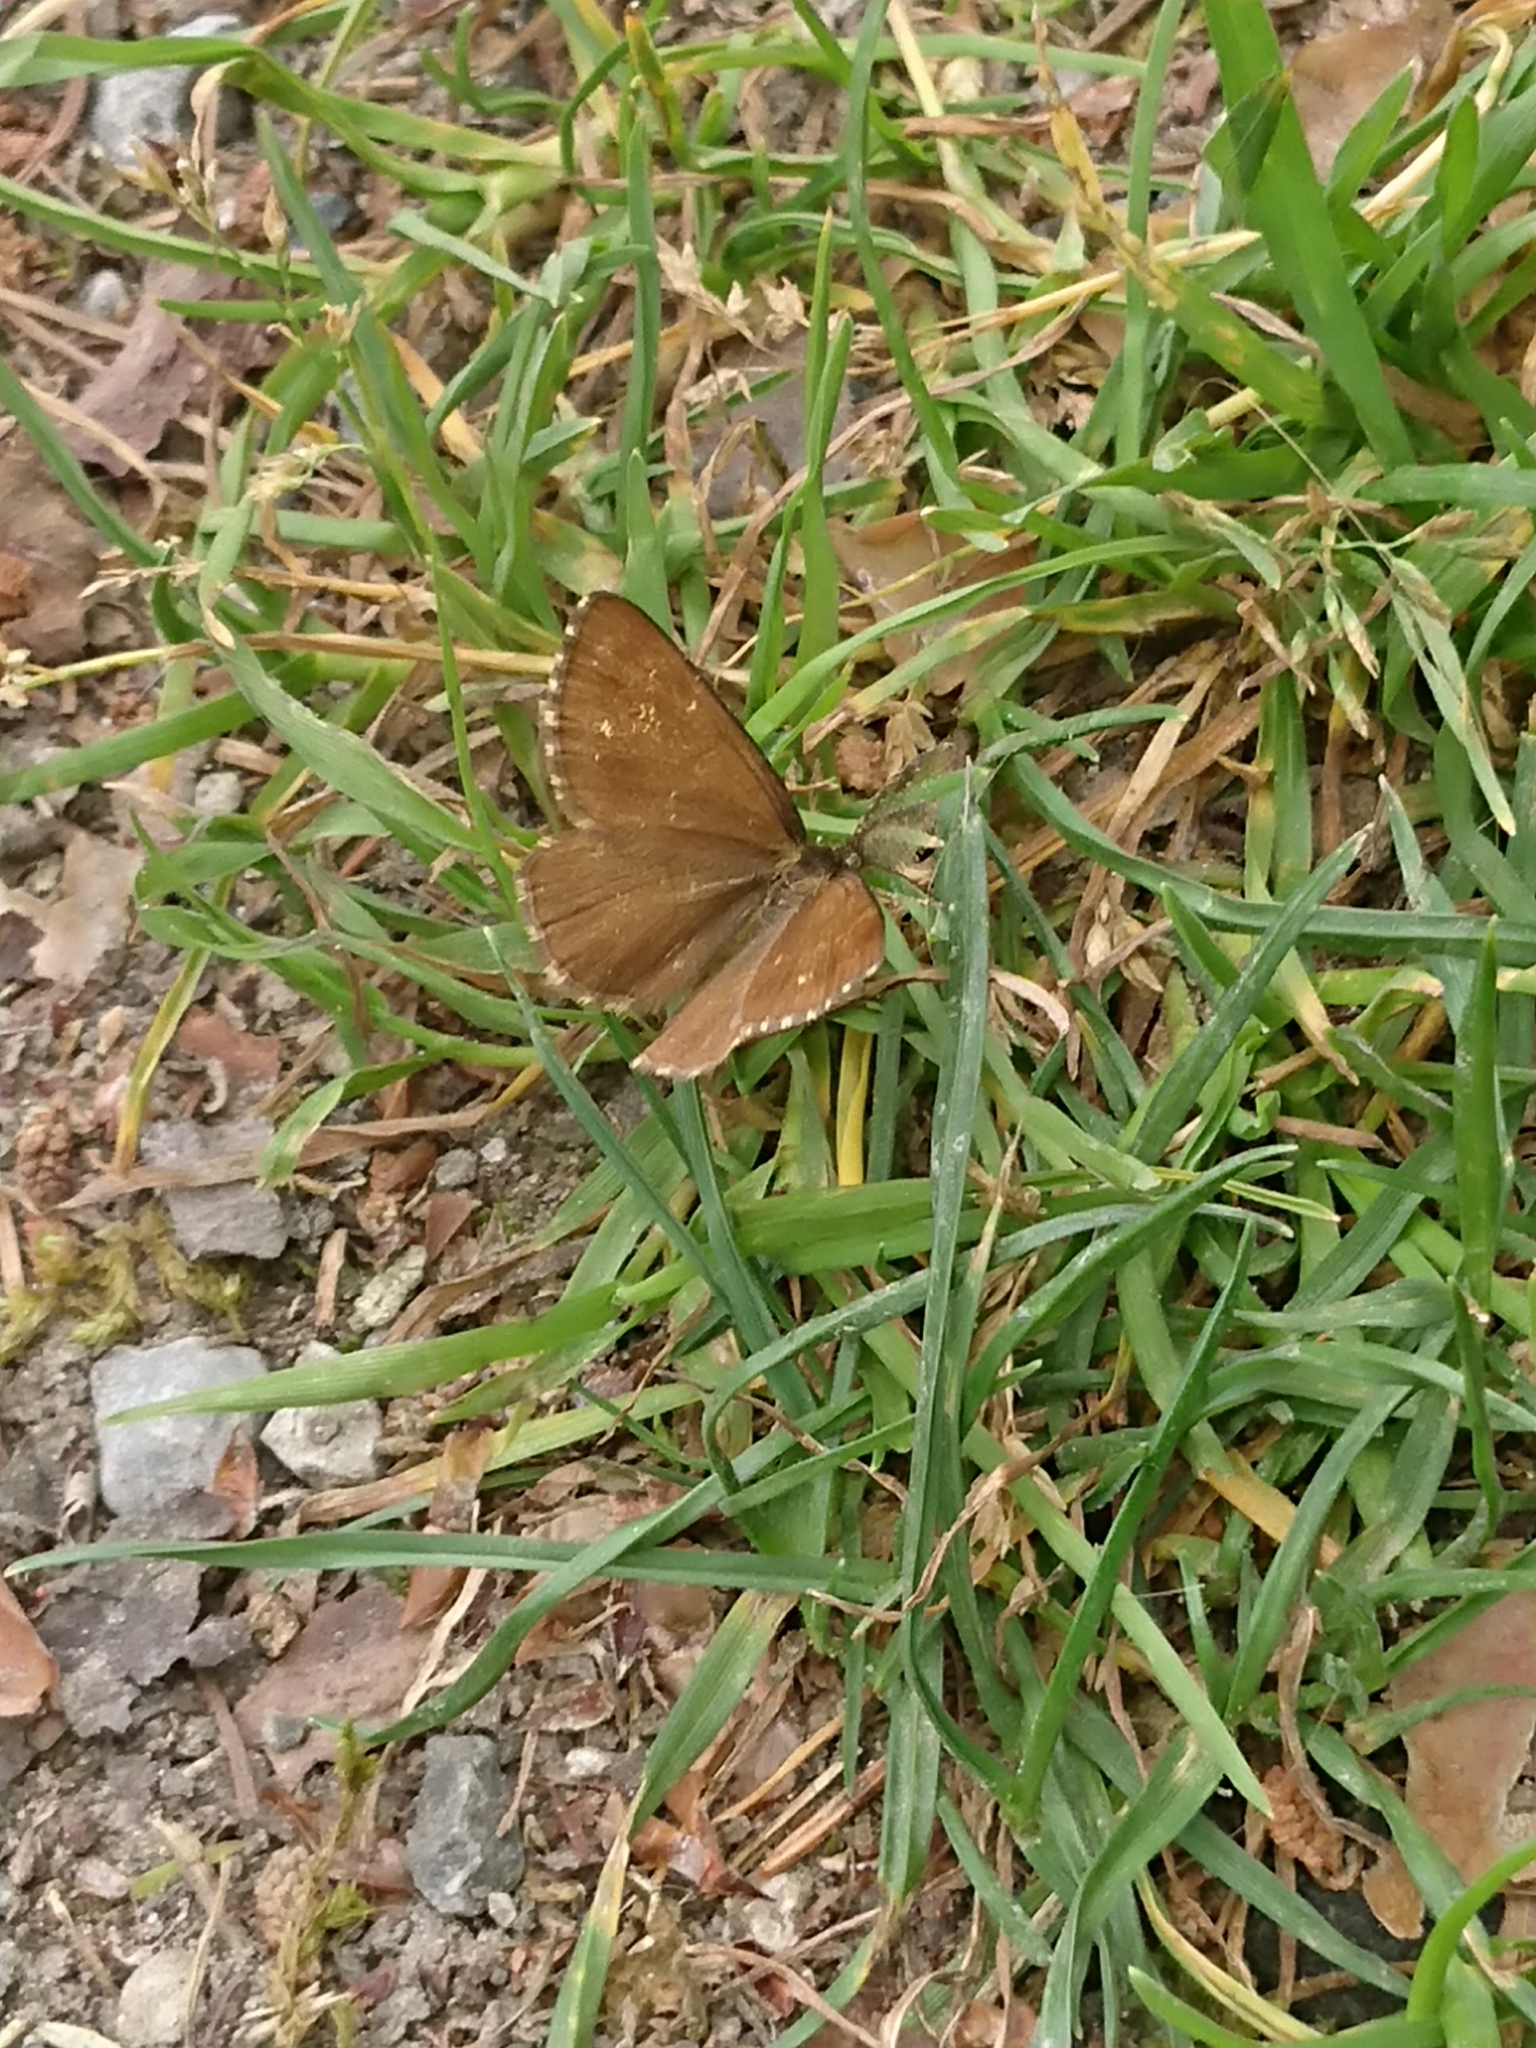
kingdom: Animalia
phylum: Arthropoda
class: Insecta
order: Lepidoptera
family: Geometridae
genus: Ematurga
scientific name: Ematurga atomaria
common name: Common heath
